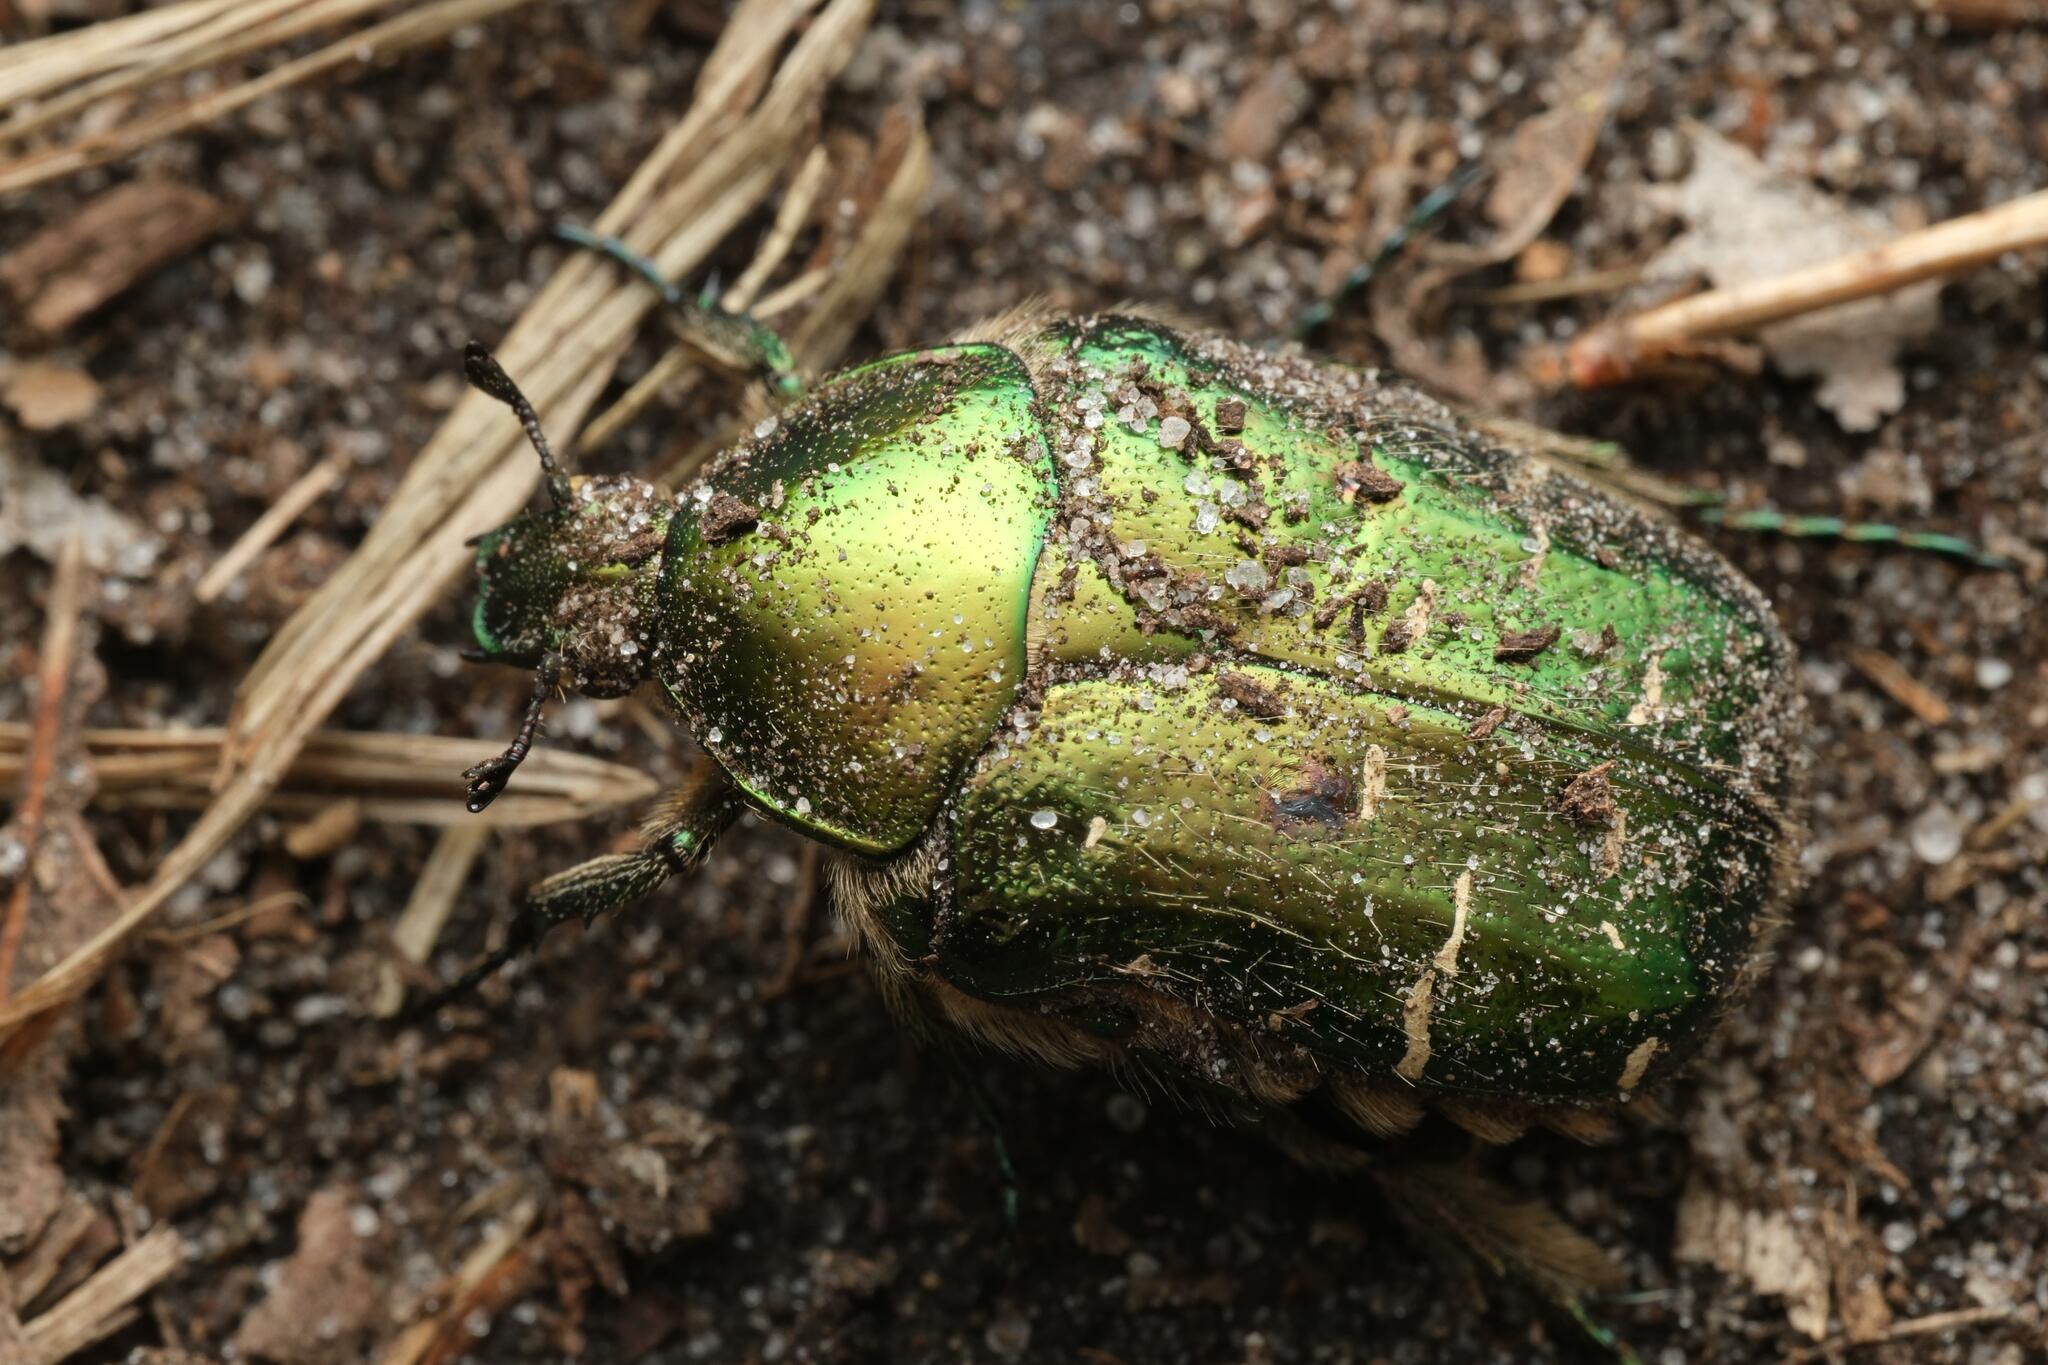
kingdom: Animalia
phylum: Arthropoda
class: Insecta
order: Coleoptera
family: Scarabaeidae
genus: Cetonia
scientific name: Cetonia aurata
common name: Rose chafer
